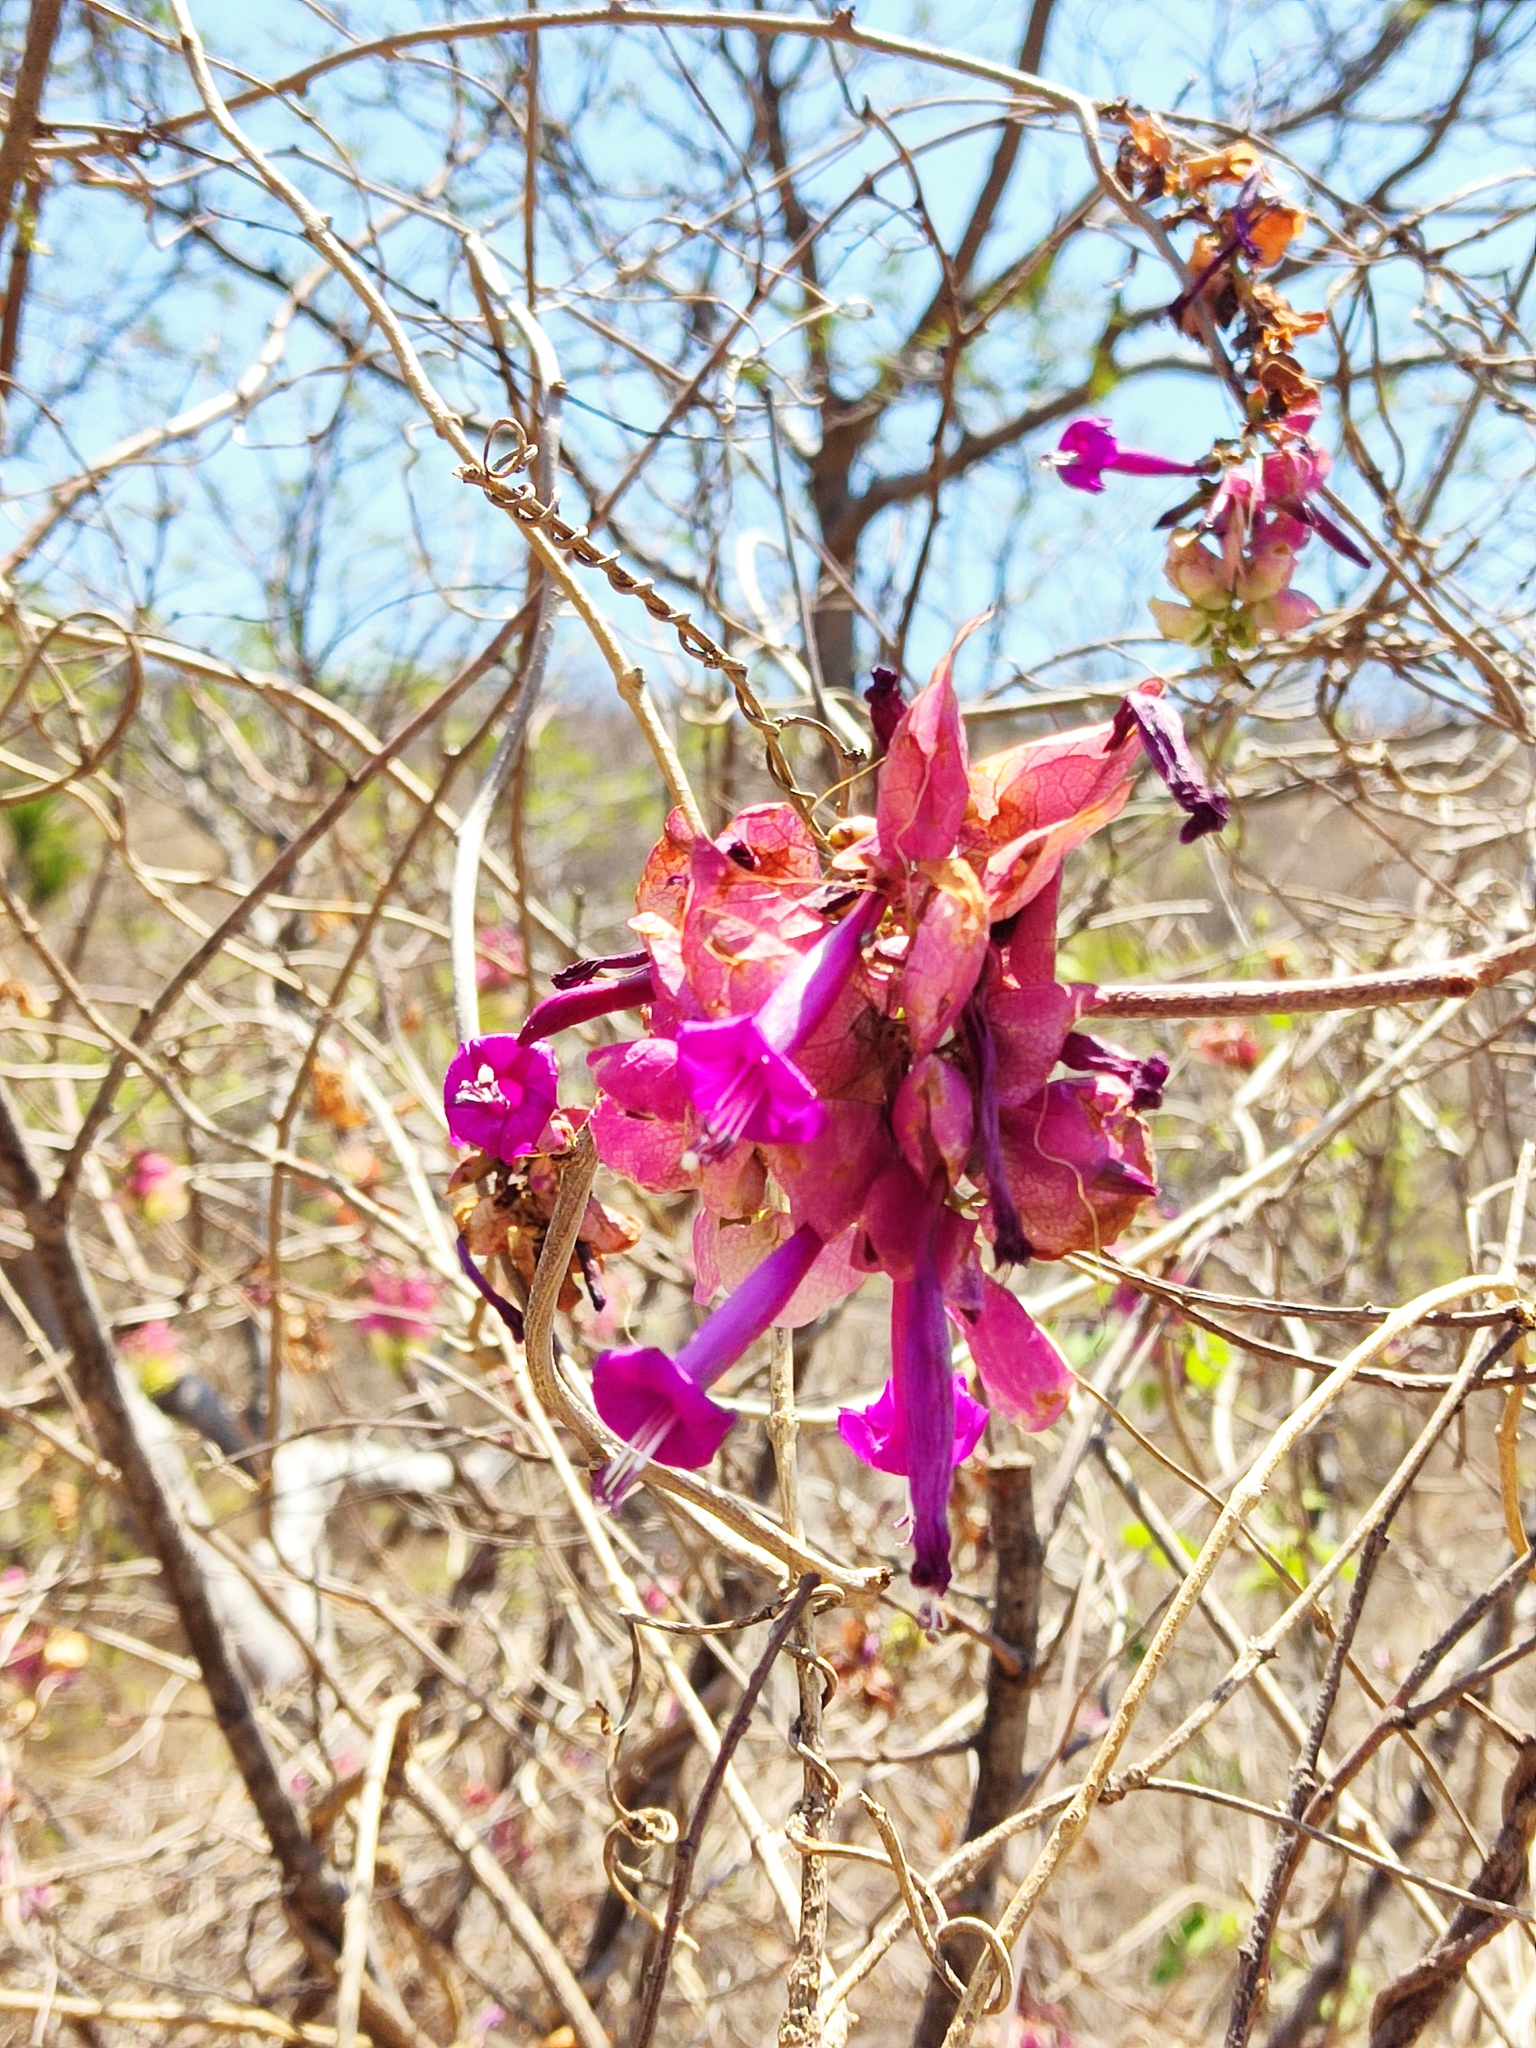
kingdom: Plantae
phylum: Tracheophyta
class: Magnoliopsida
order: Solanales
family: Convolvulaceae
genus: Ipomoea
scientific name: Ipomoea bracteata
